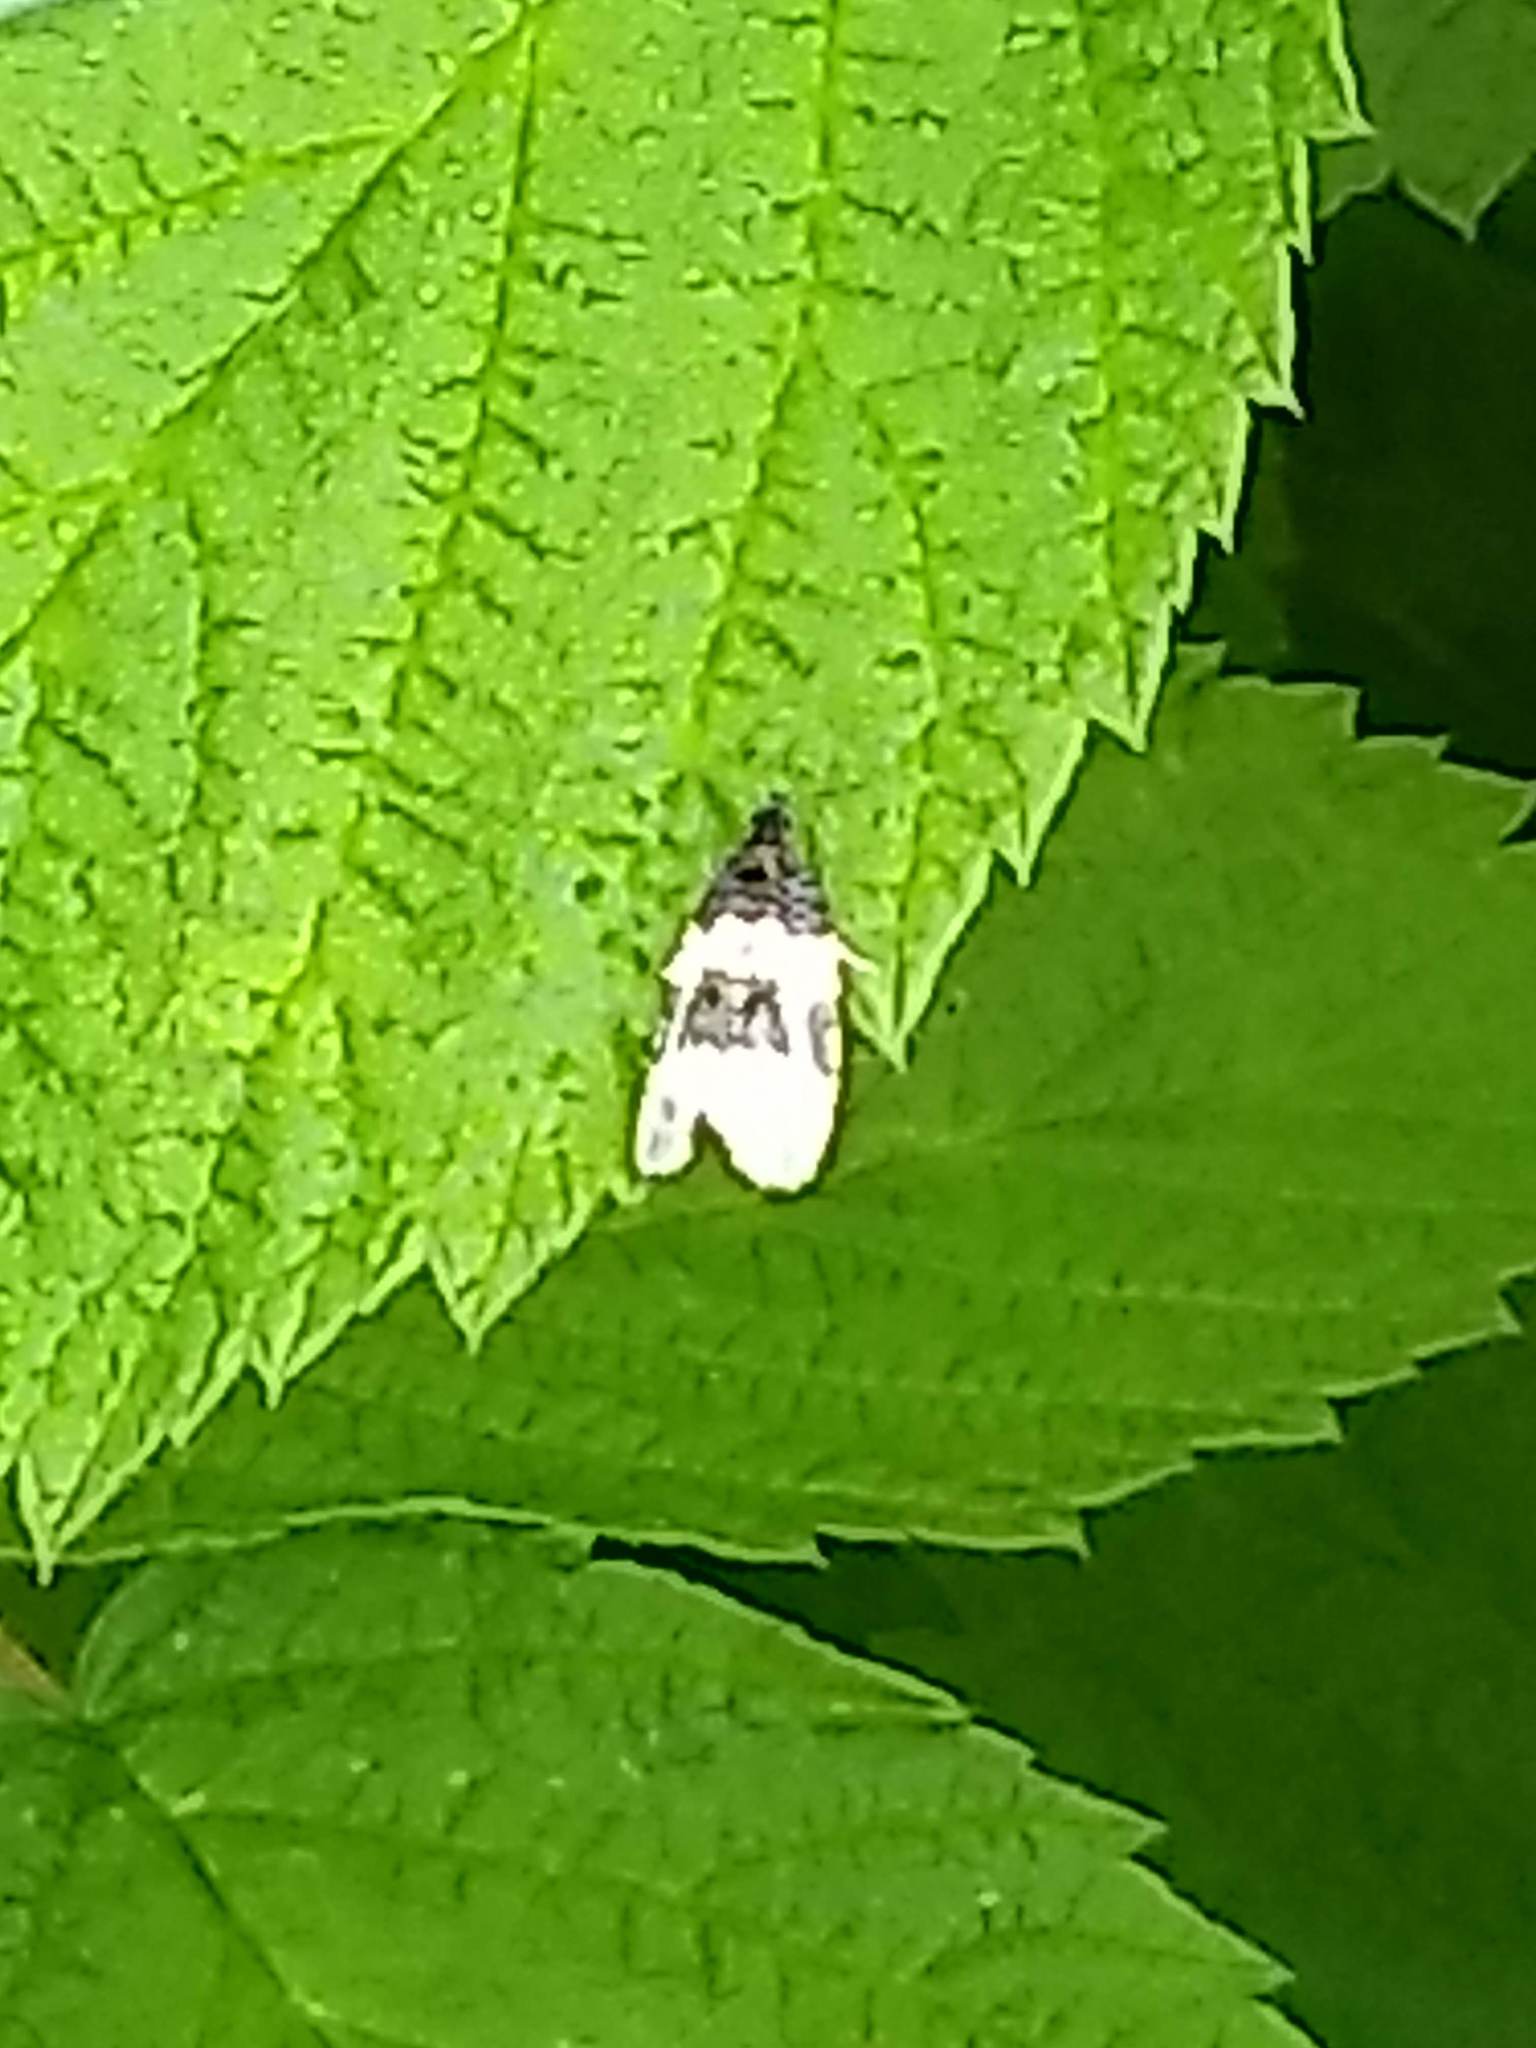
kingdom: Animalia
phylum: Arthropoda
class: Insecta
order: Lepidoptera
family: Tortricidae
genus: Olethreutes
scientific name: Olethreutes bipartitana
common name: Divided olethreutes moth
